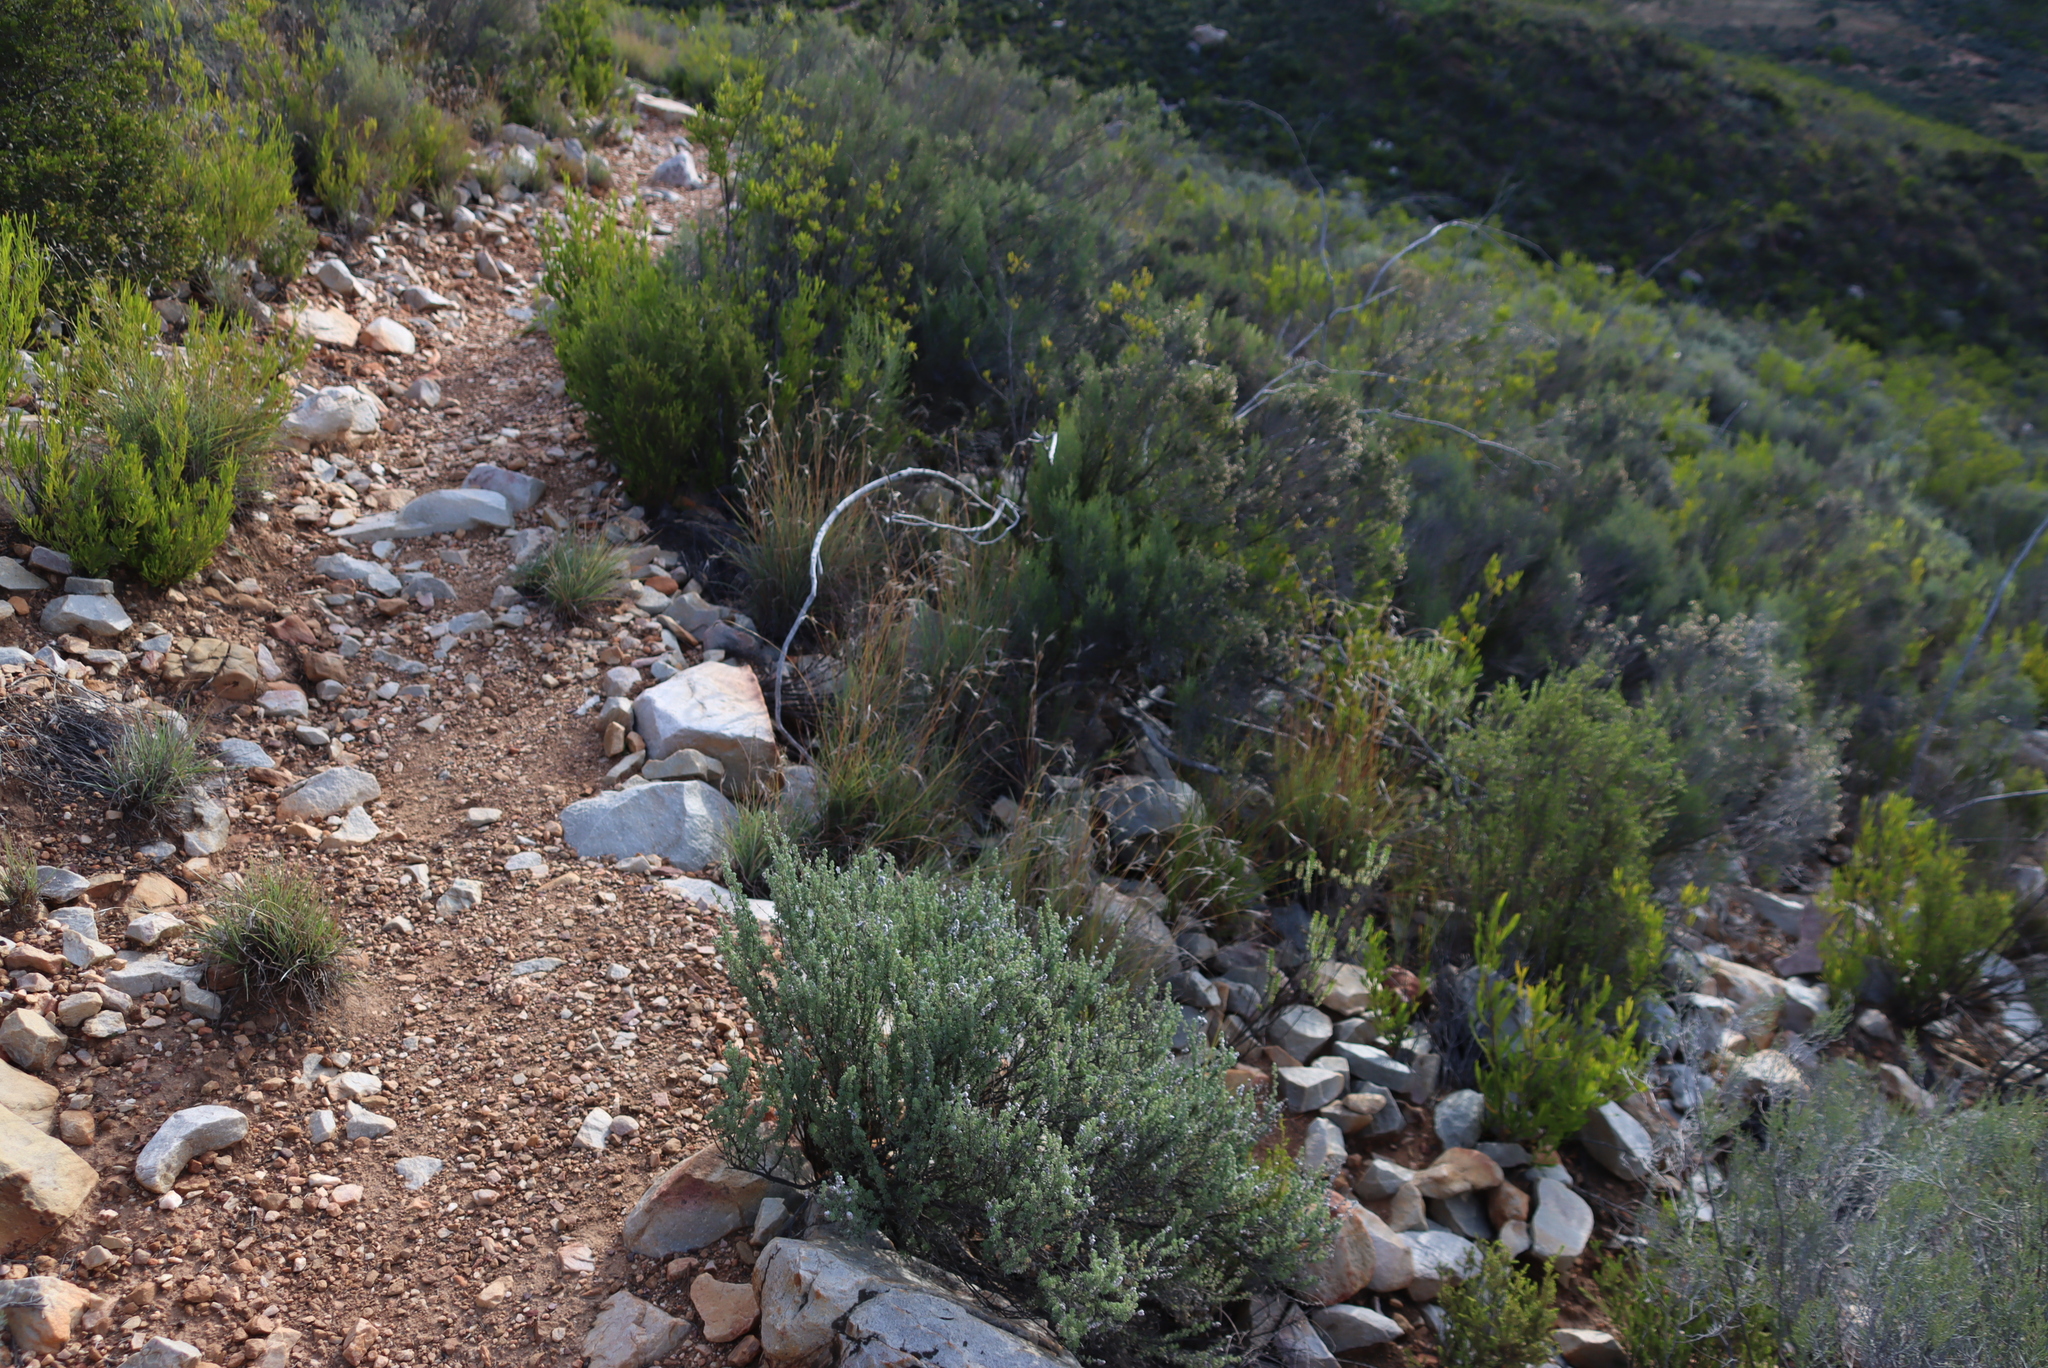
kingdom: Plantae
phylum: Tracheophyta
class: Liliopsida
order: Poales
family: Poaceae
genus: Themeda
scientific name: Themeda triandra
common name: Kangaroo grass
